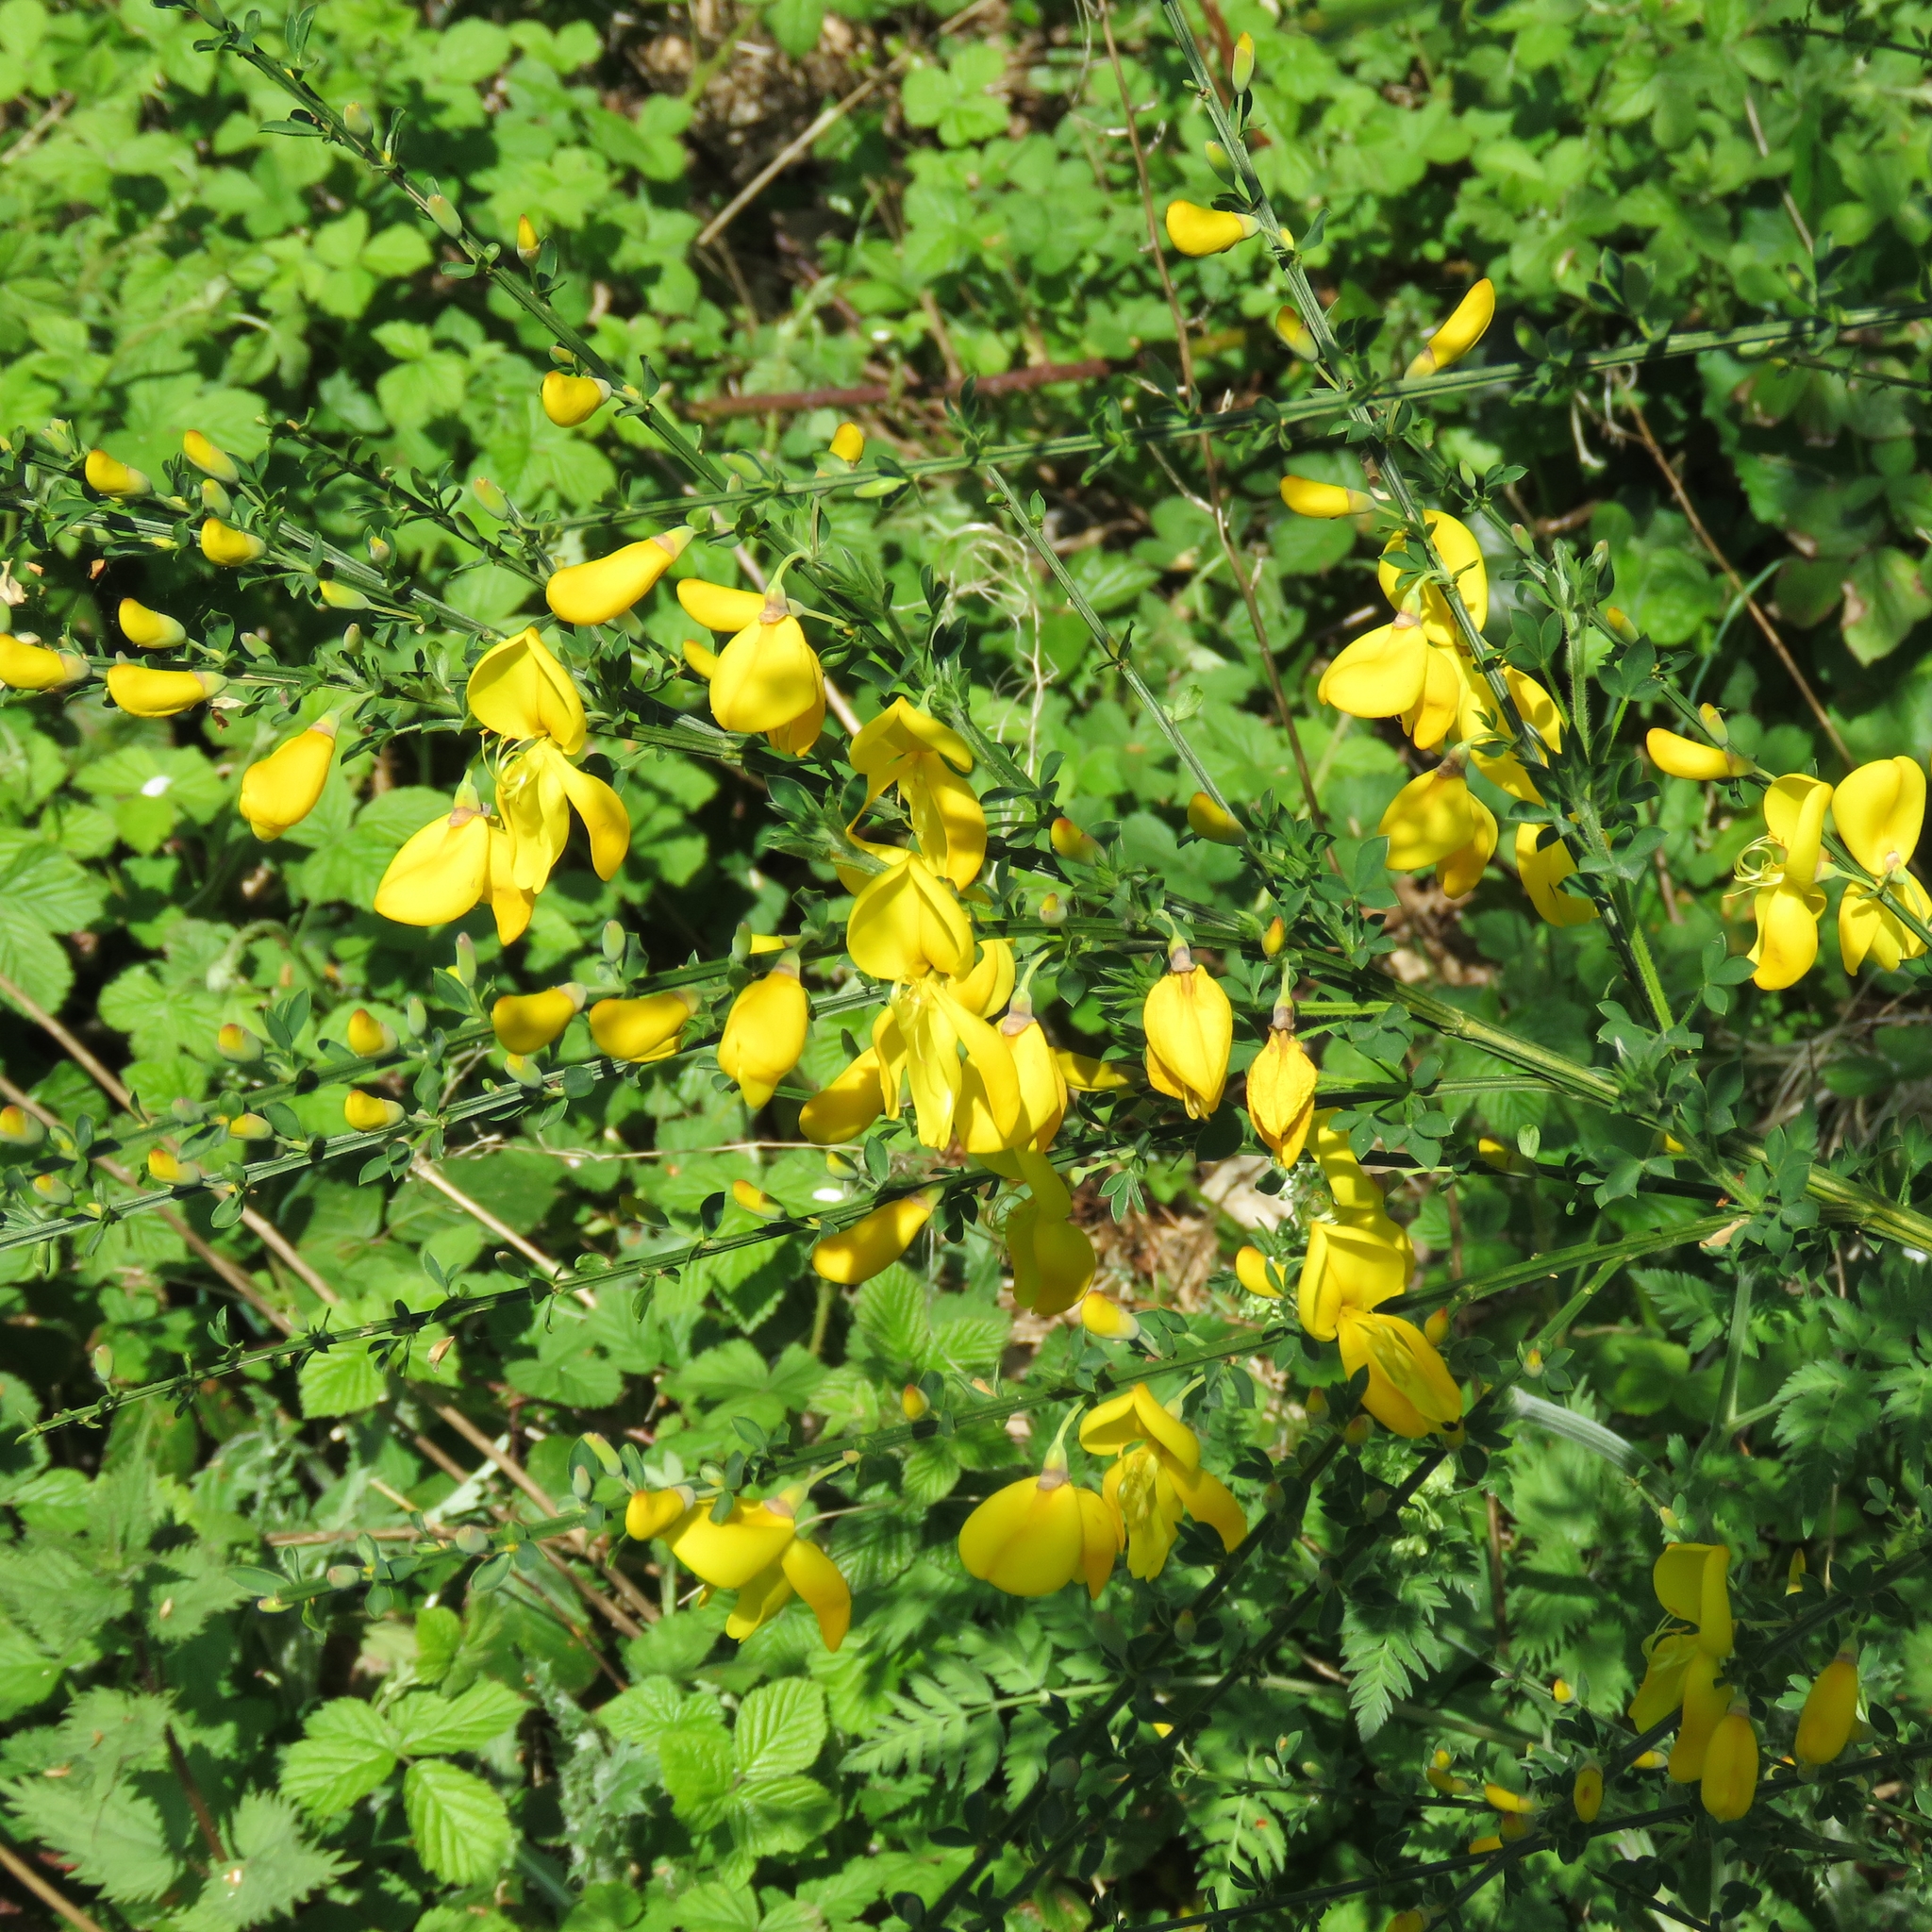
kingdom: Plantae
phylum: Tracheophyta
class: Magnoliopsida
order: Fabales
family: Fabaceae
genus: Cytisus
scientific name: Cytisus scoparius
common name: Scotch broom
